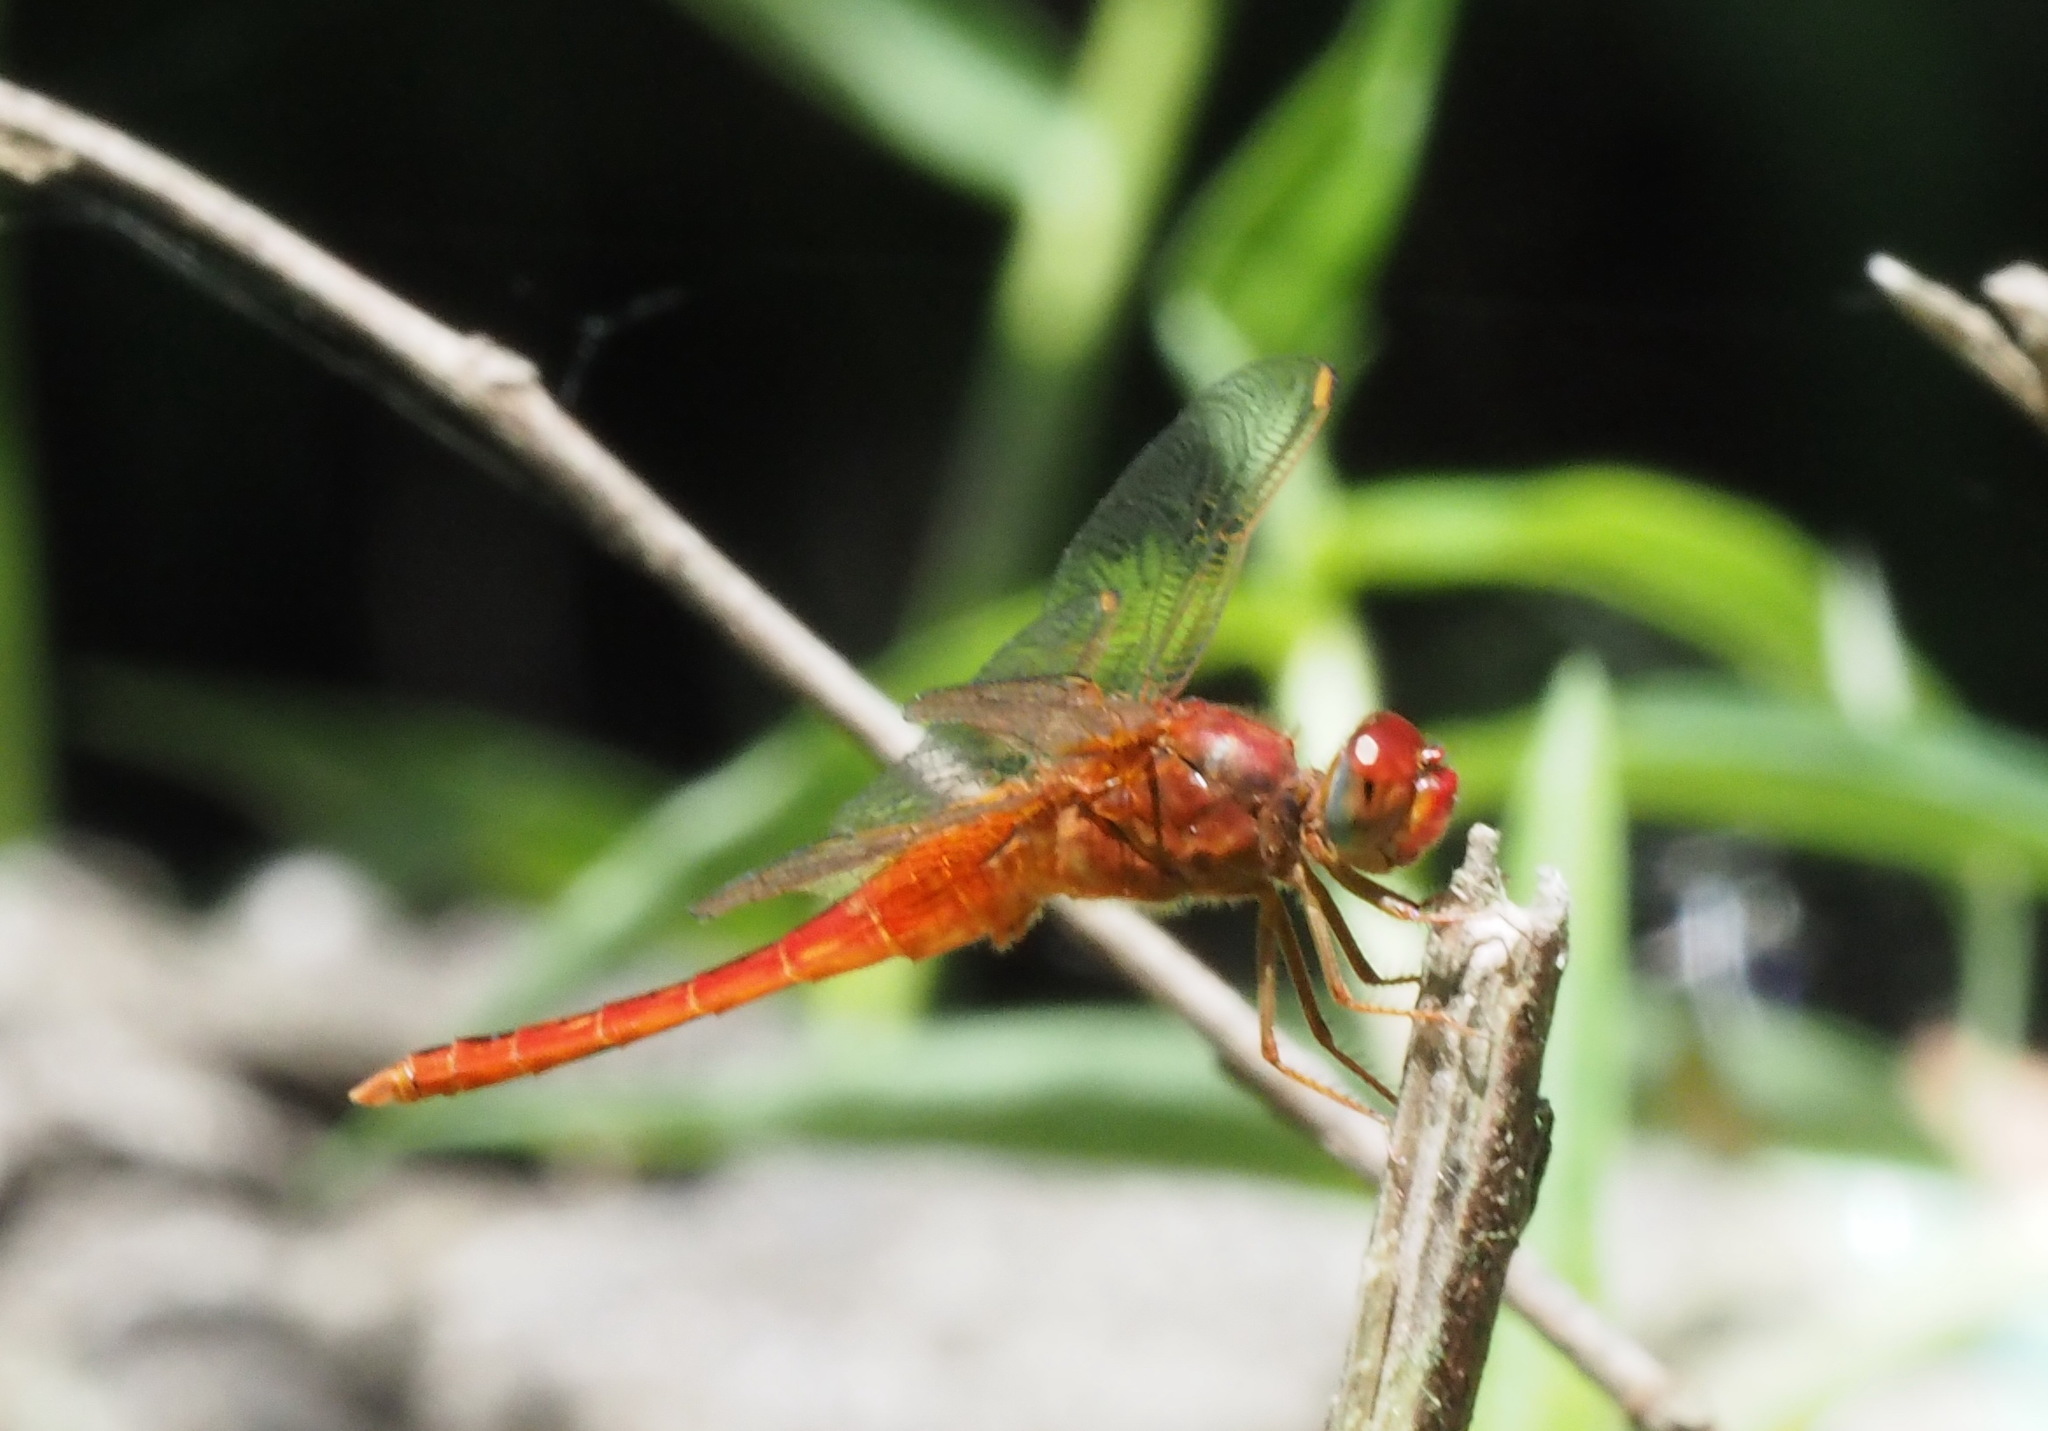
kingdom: Animalia
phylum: Arthropoda
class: Insecta
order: Odonata
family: Libellulidae
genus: Crocothemis
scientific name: Crocothemis servilia
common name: Scarlet skimmer
